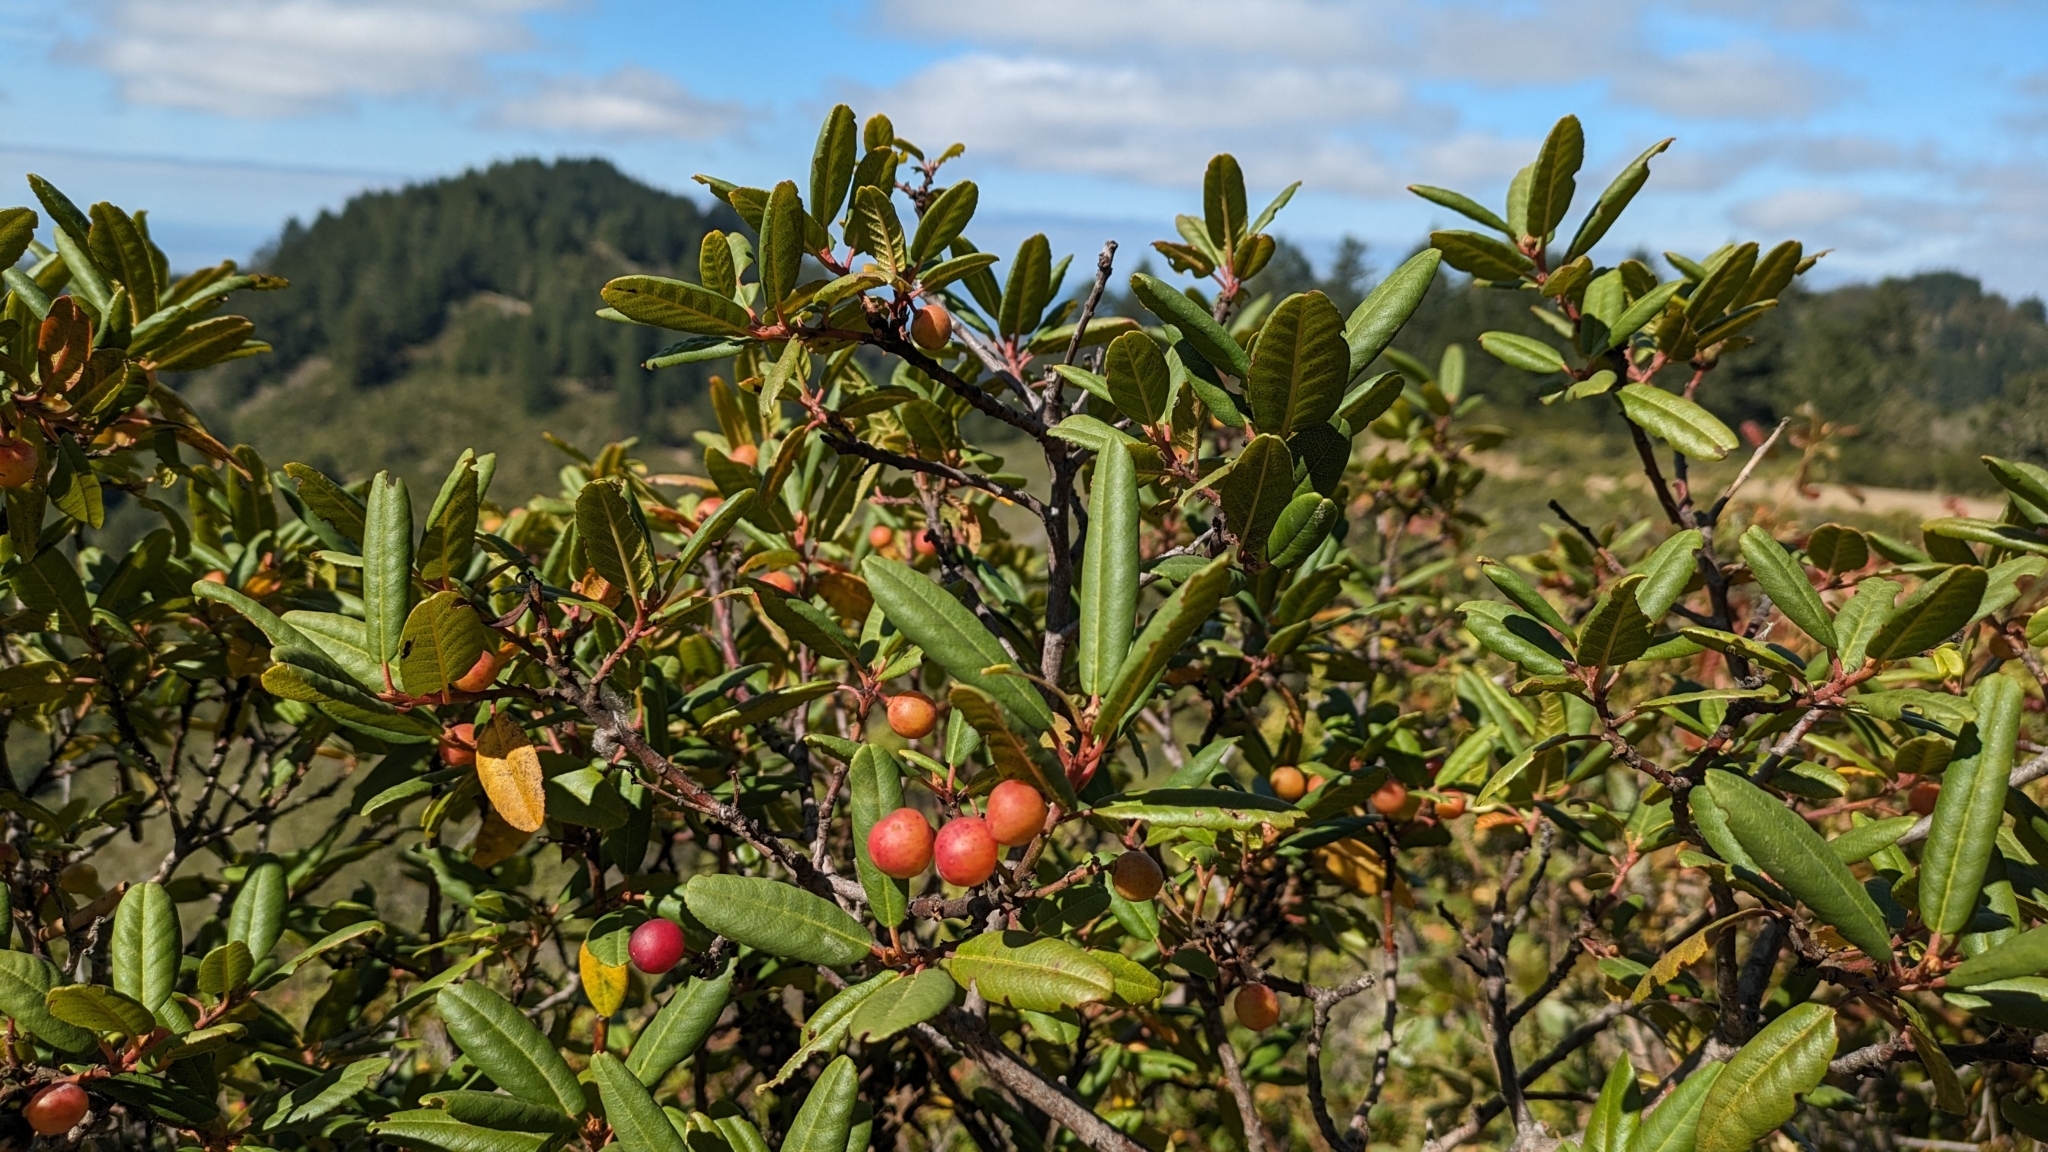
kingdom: Plantae
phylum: Tracheophyta
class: Magnoliopsida
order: Rosales
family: Rhamnaceae
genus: Frangula
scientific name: Frangula californica
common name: California buckthorn
